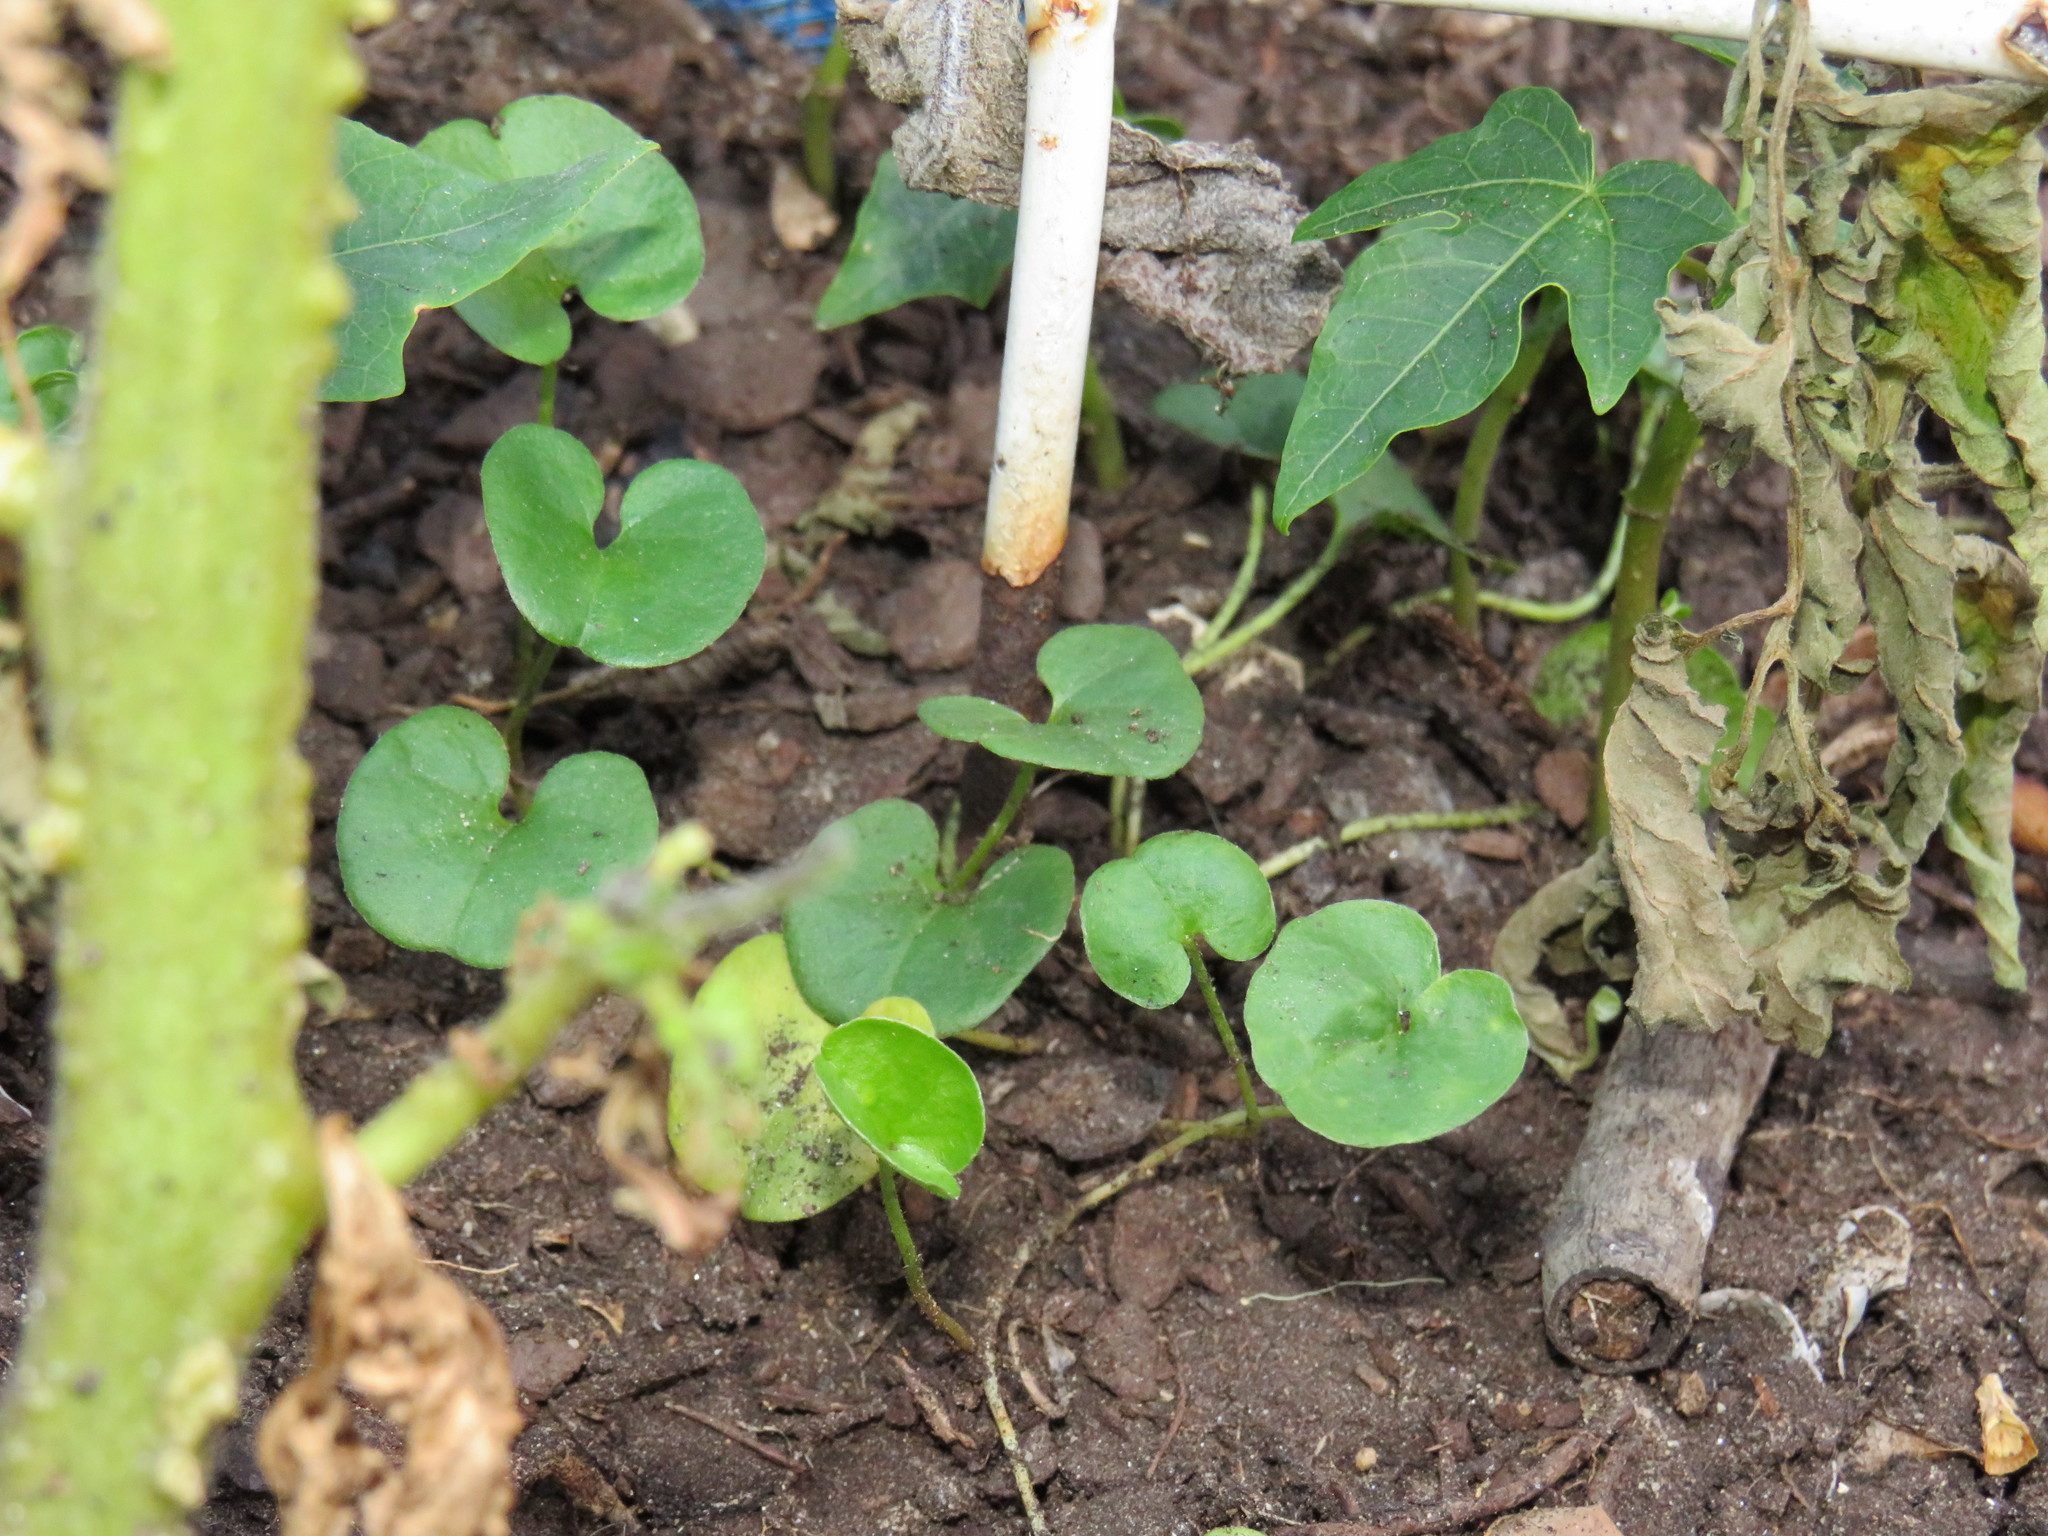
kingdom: Plantae
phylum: Tracheophyta
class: Magnoliopsida
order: Solanales
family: Convolvulaceae
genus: Dichondra
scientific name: Dichondra micrantha
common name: Kidneyweed
